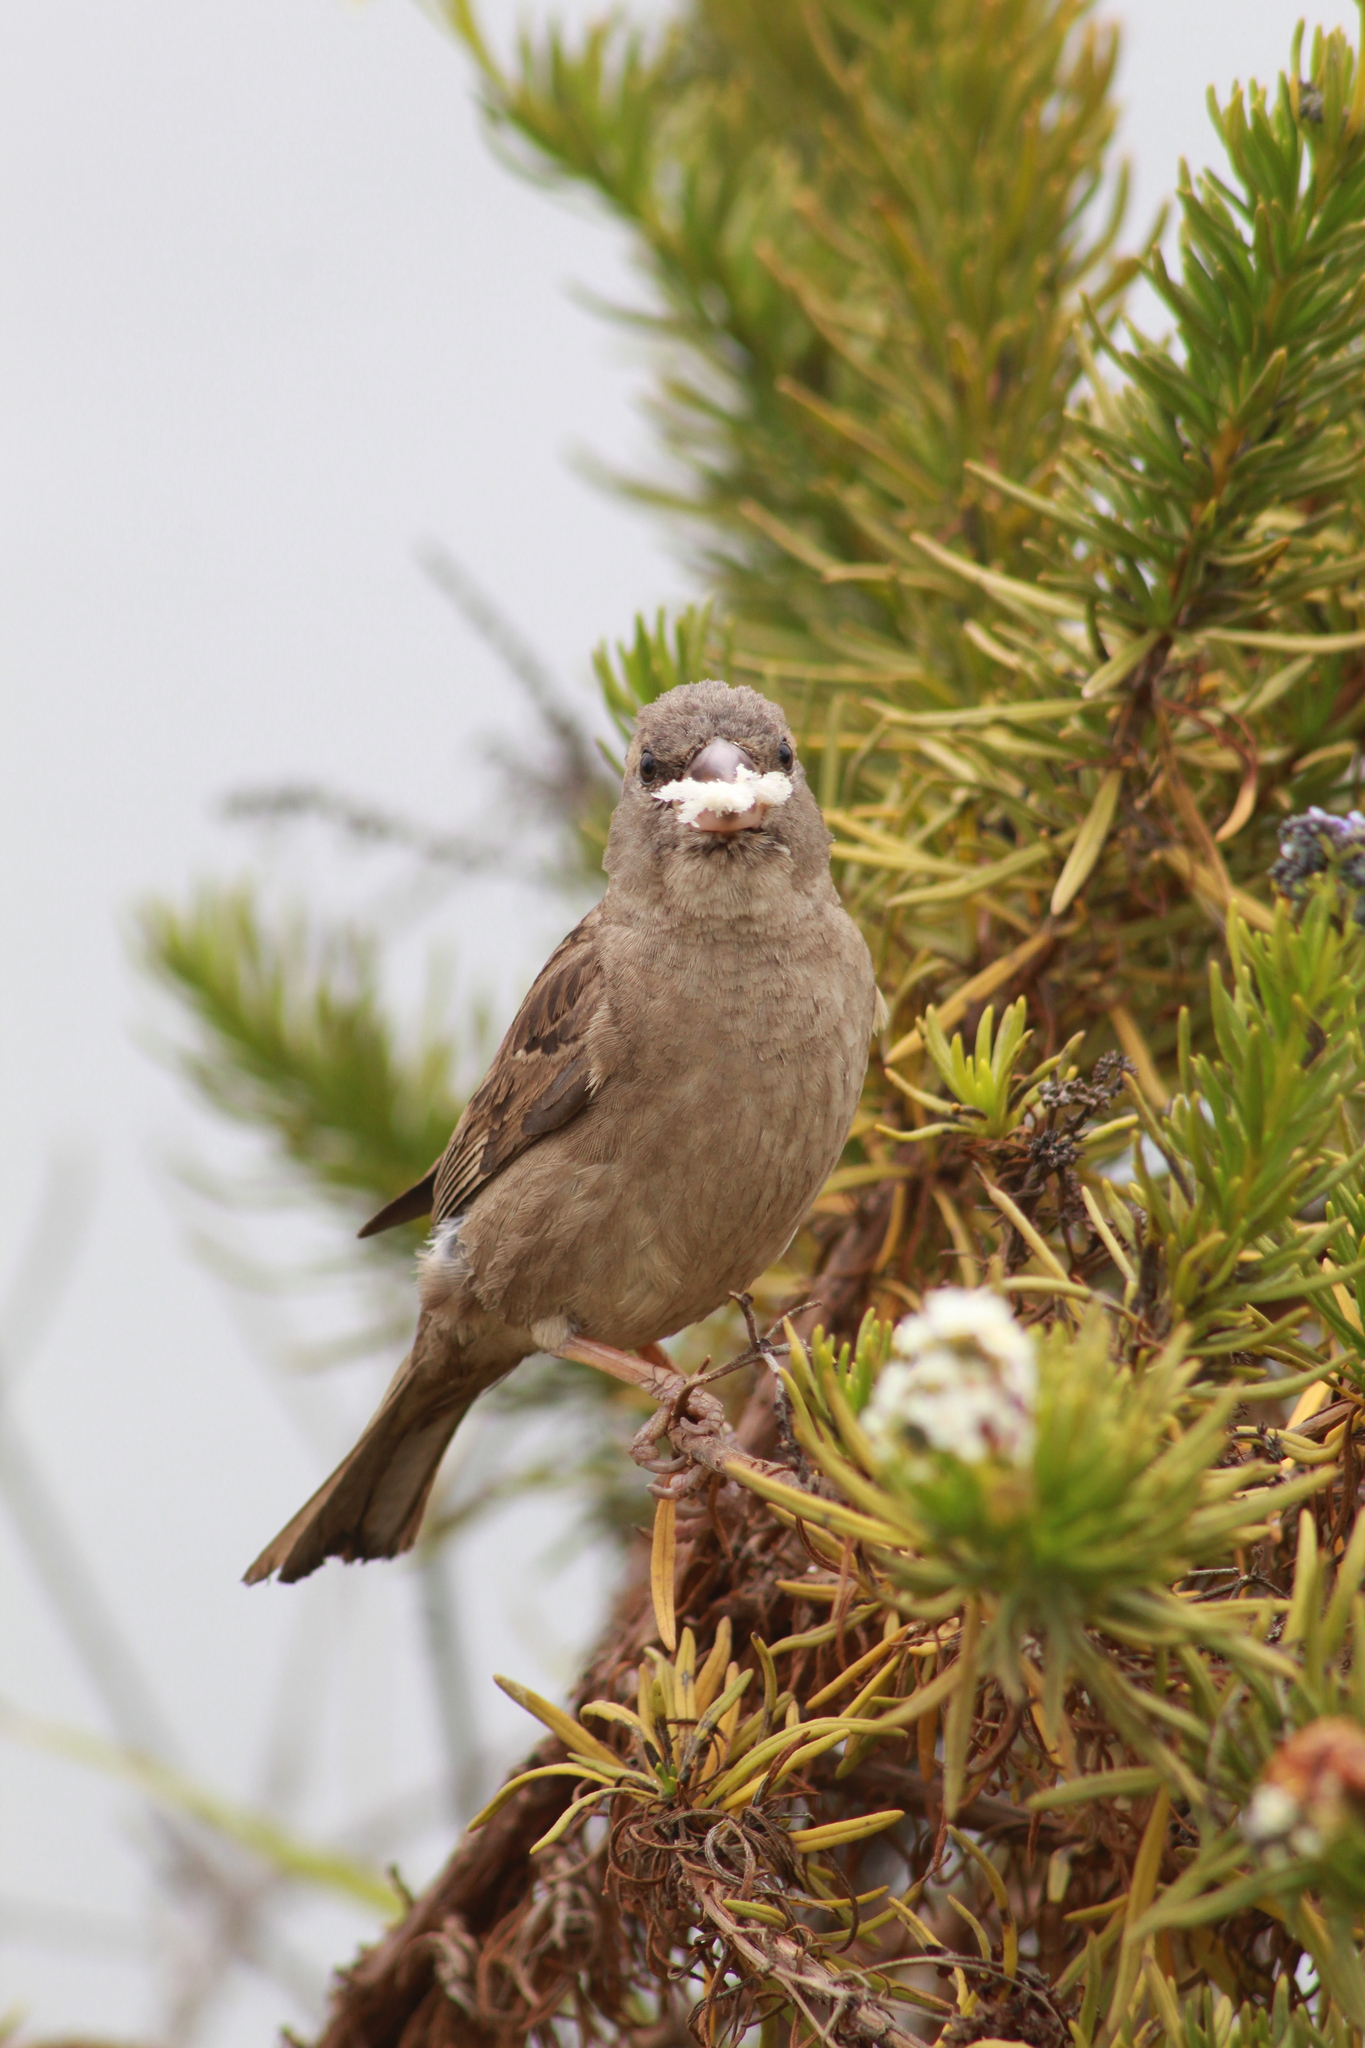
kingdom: Animalia
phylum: Chordata
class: Aves
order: Passeriformes
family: Passeridae
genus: Passer
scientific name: Passer domesticus
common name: House sparrow
